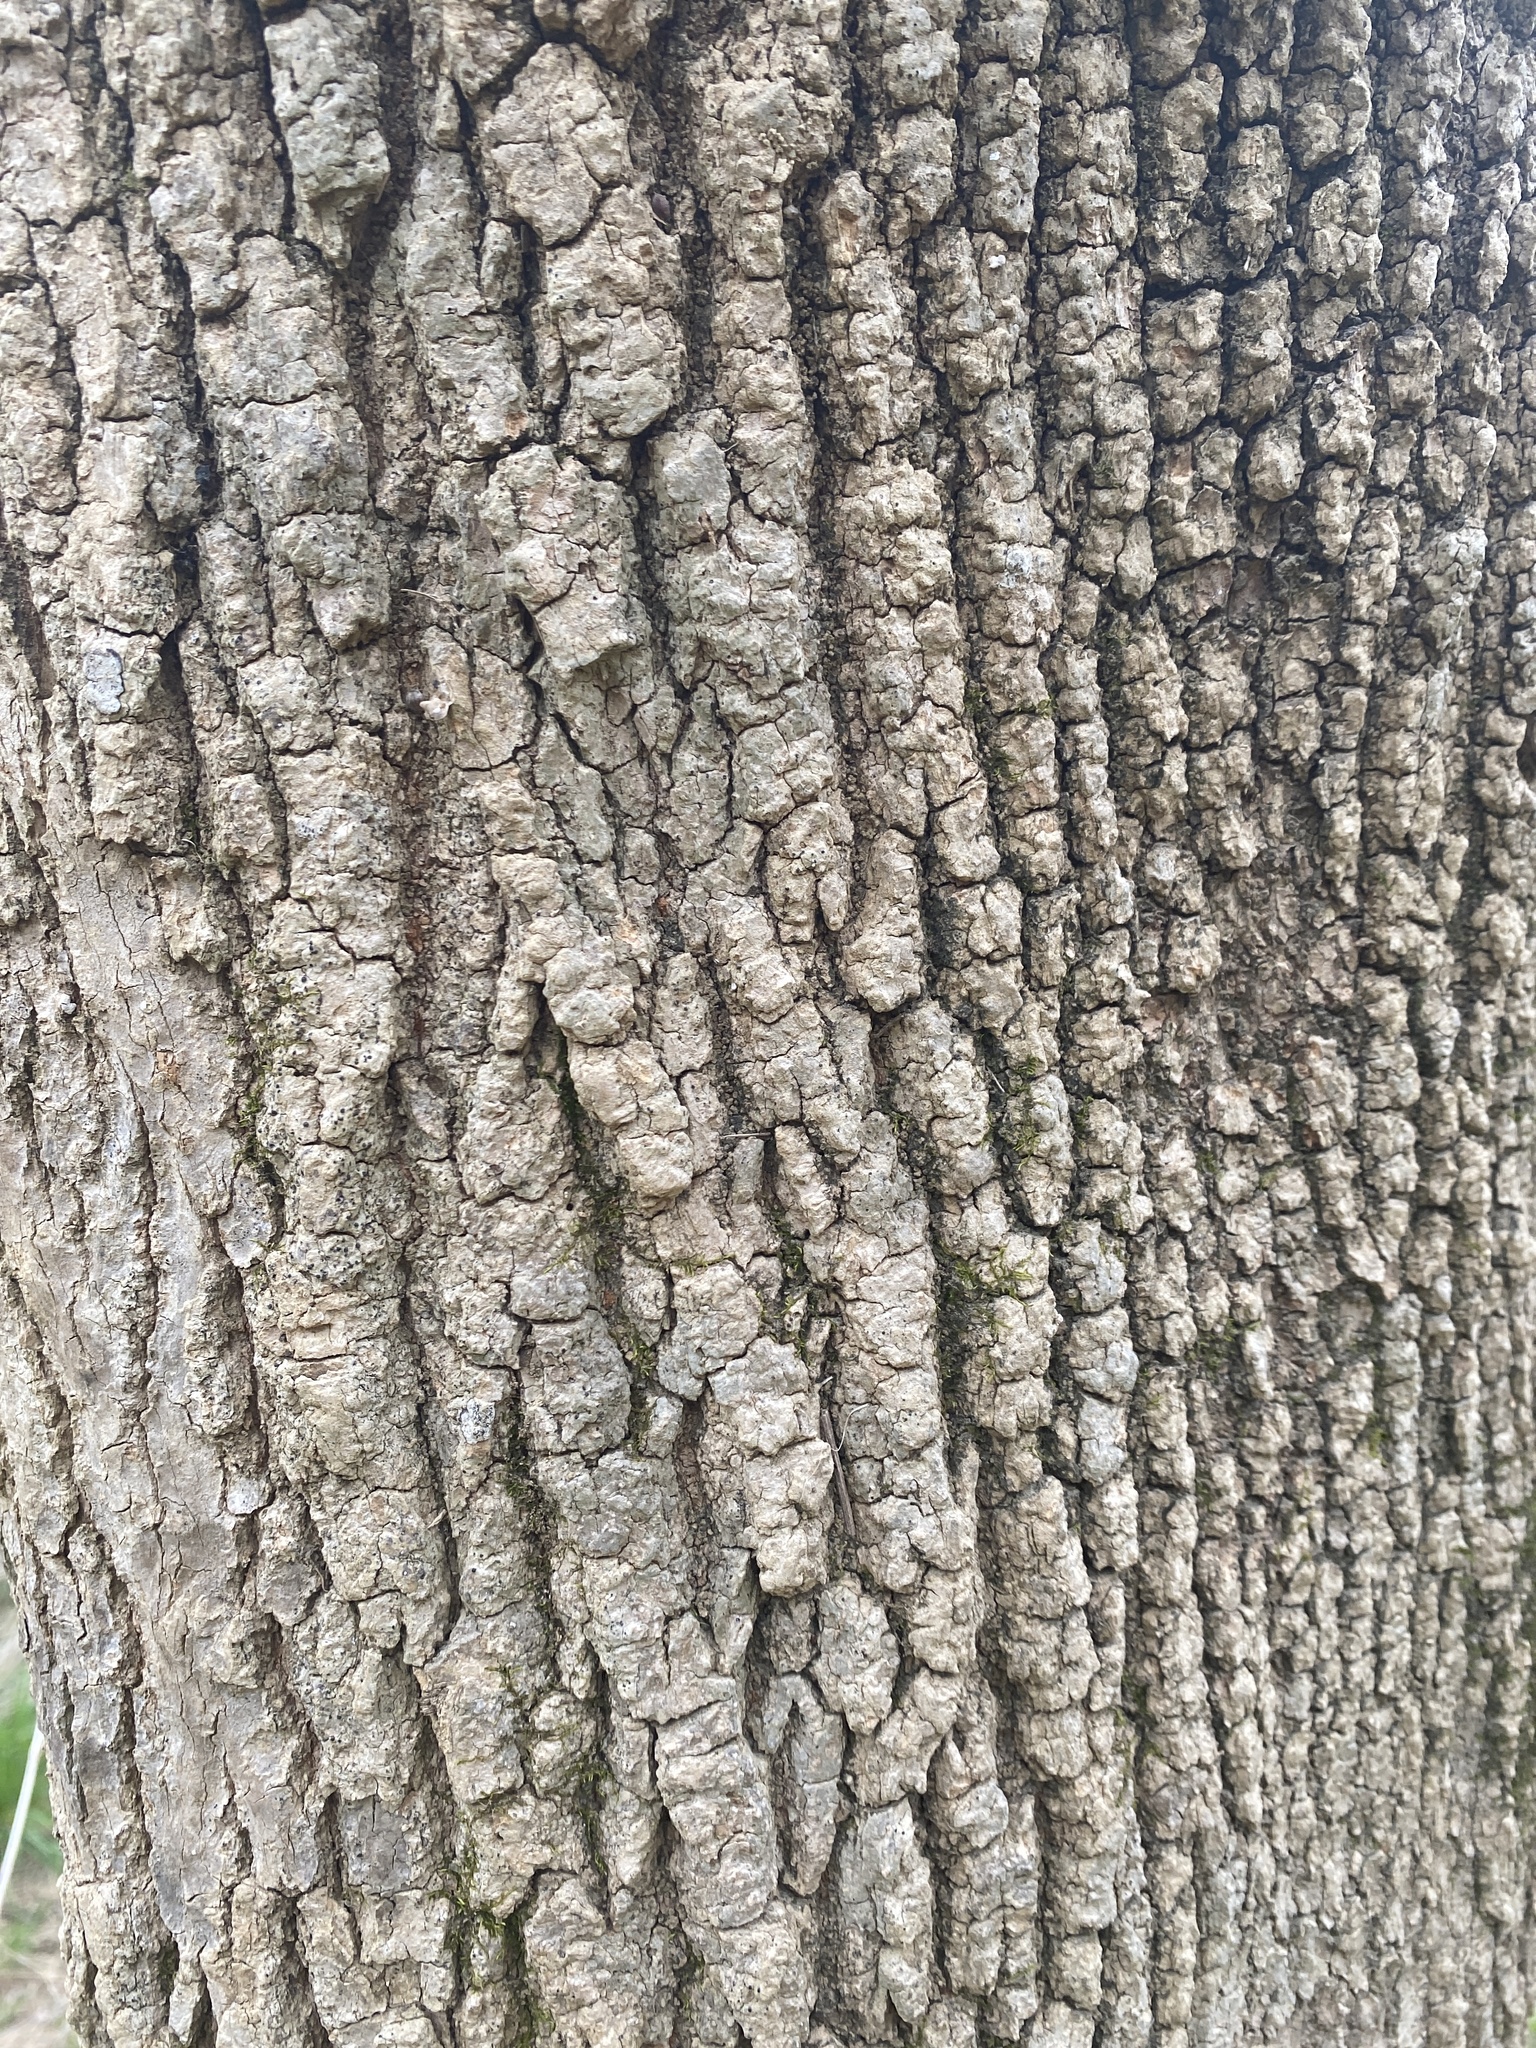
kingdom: Plantae
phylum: Tracheophyta
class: Magnoliopsida
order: Sapindales
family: Sapindaceae
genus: Acer
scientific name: Acer negundo
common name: Ashleaf maple
